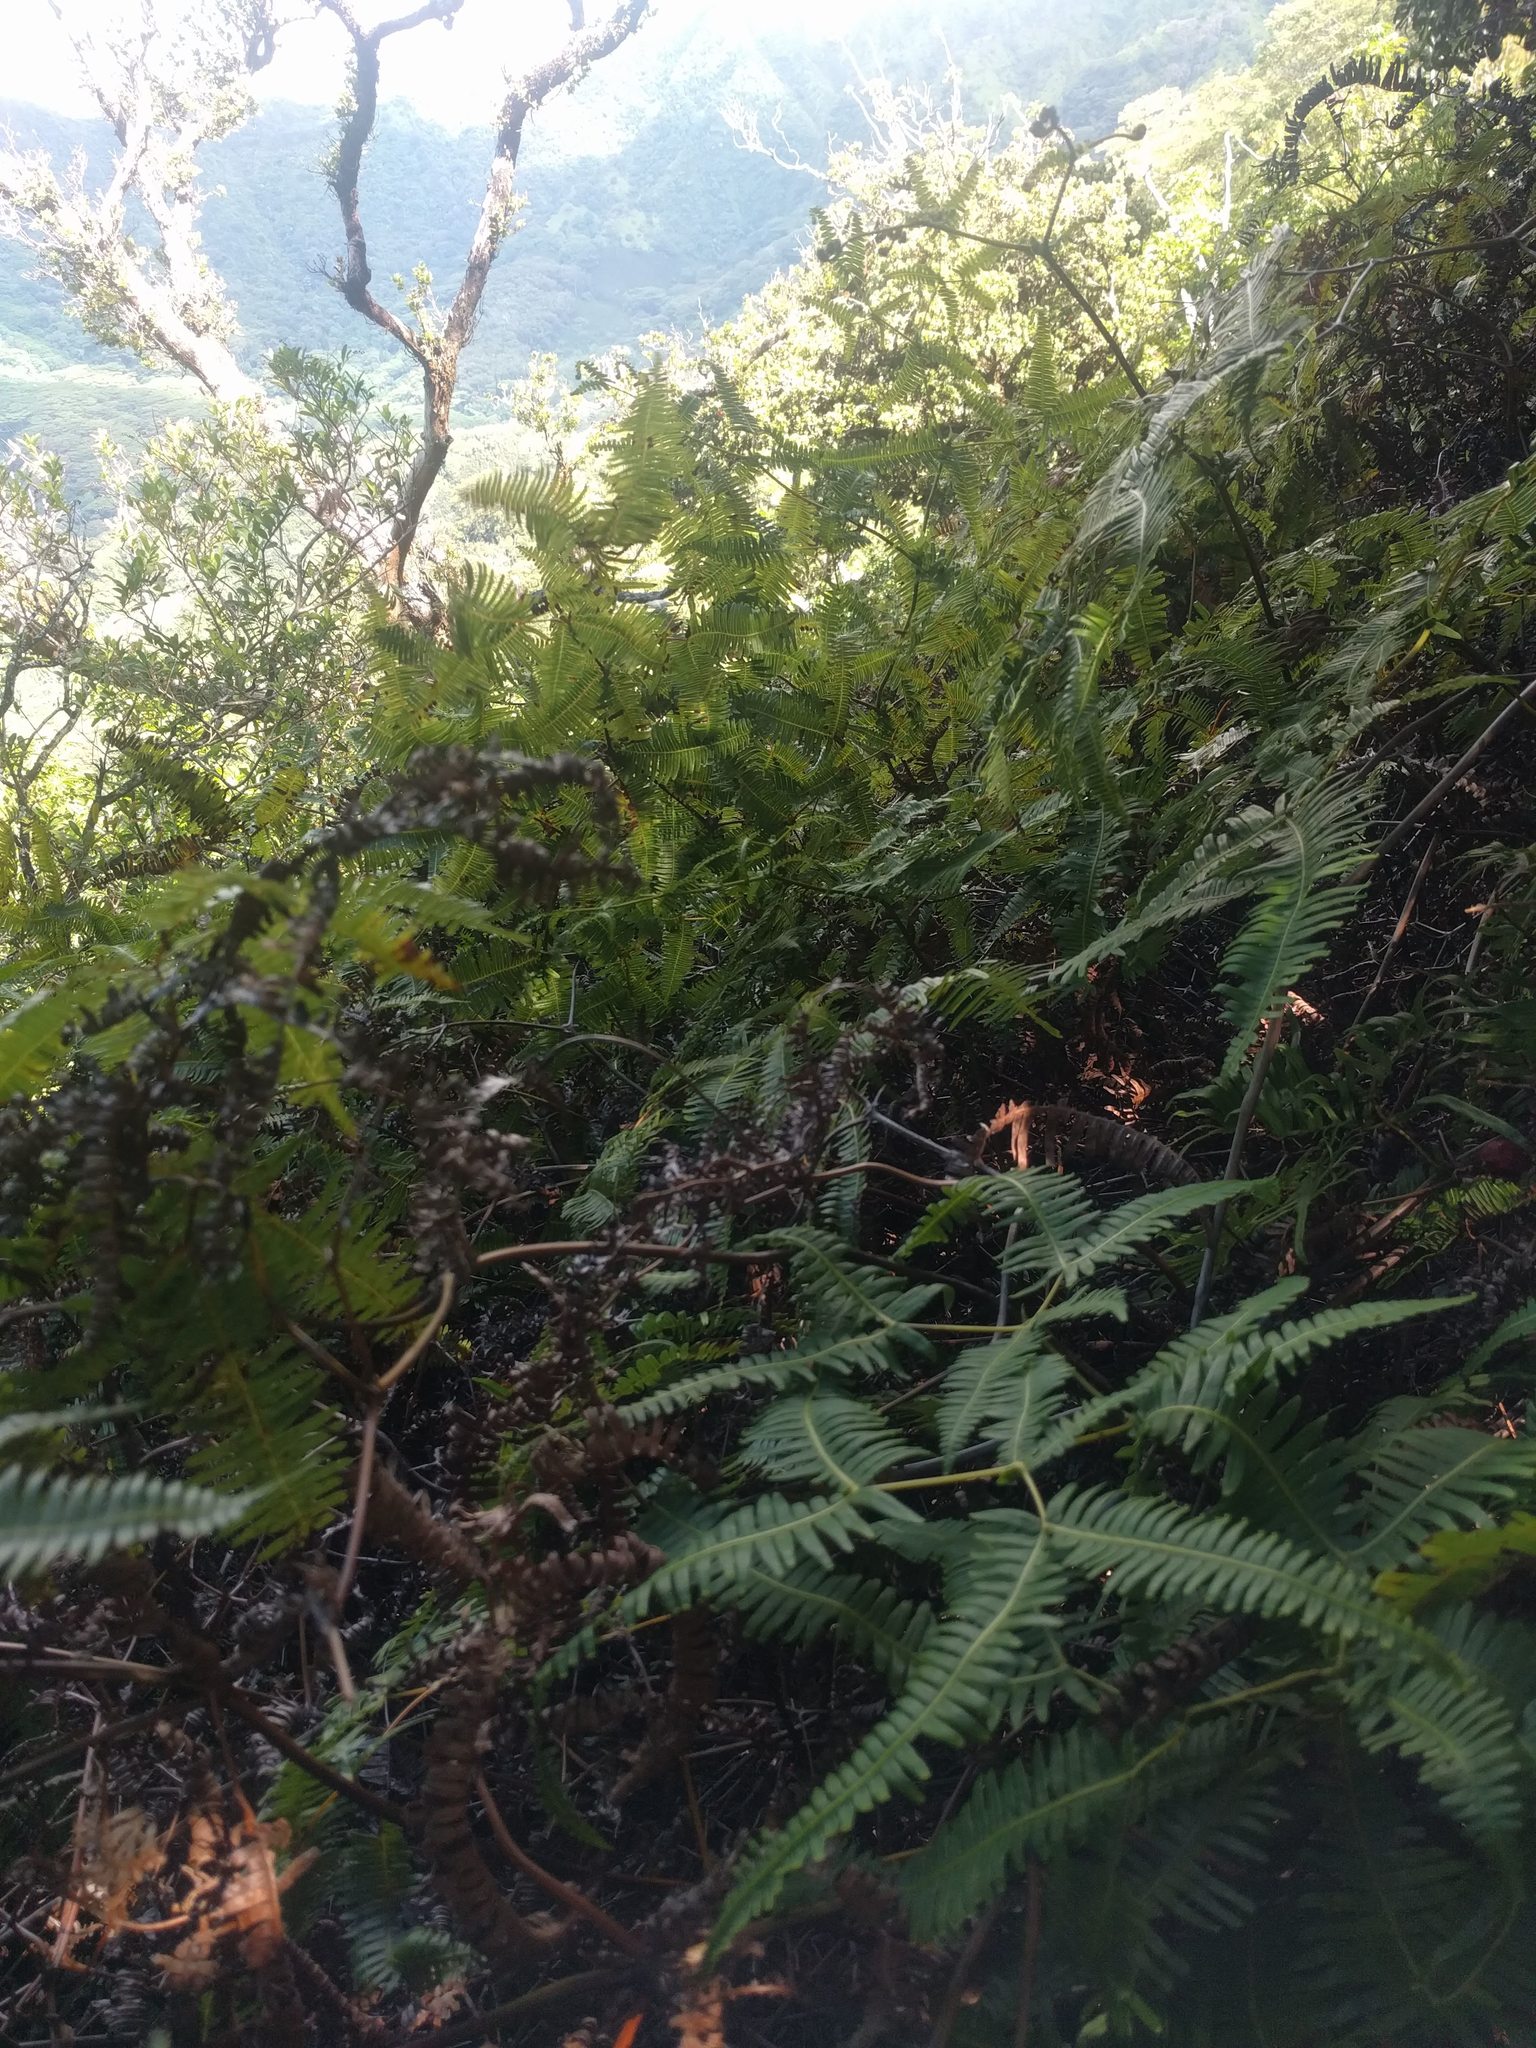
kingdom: Plantae
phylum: Tracheophyta
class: Polypodiopsida
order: Gleicheniales
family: Gleicheniaceae
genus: Dicranopteris
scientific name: Dicranopteris linearis
